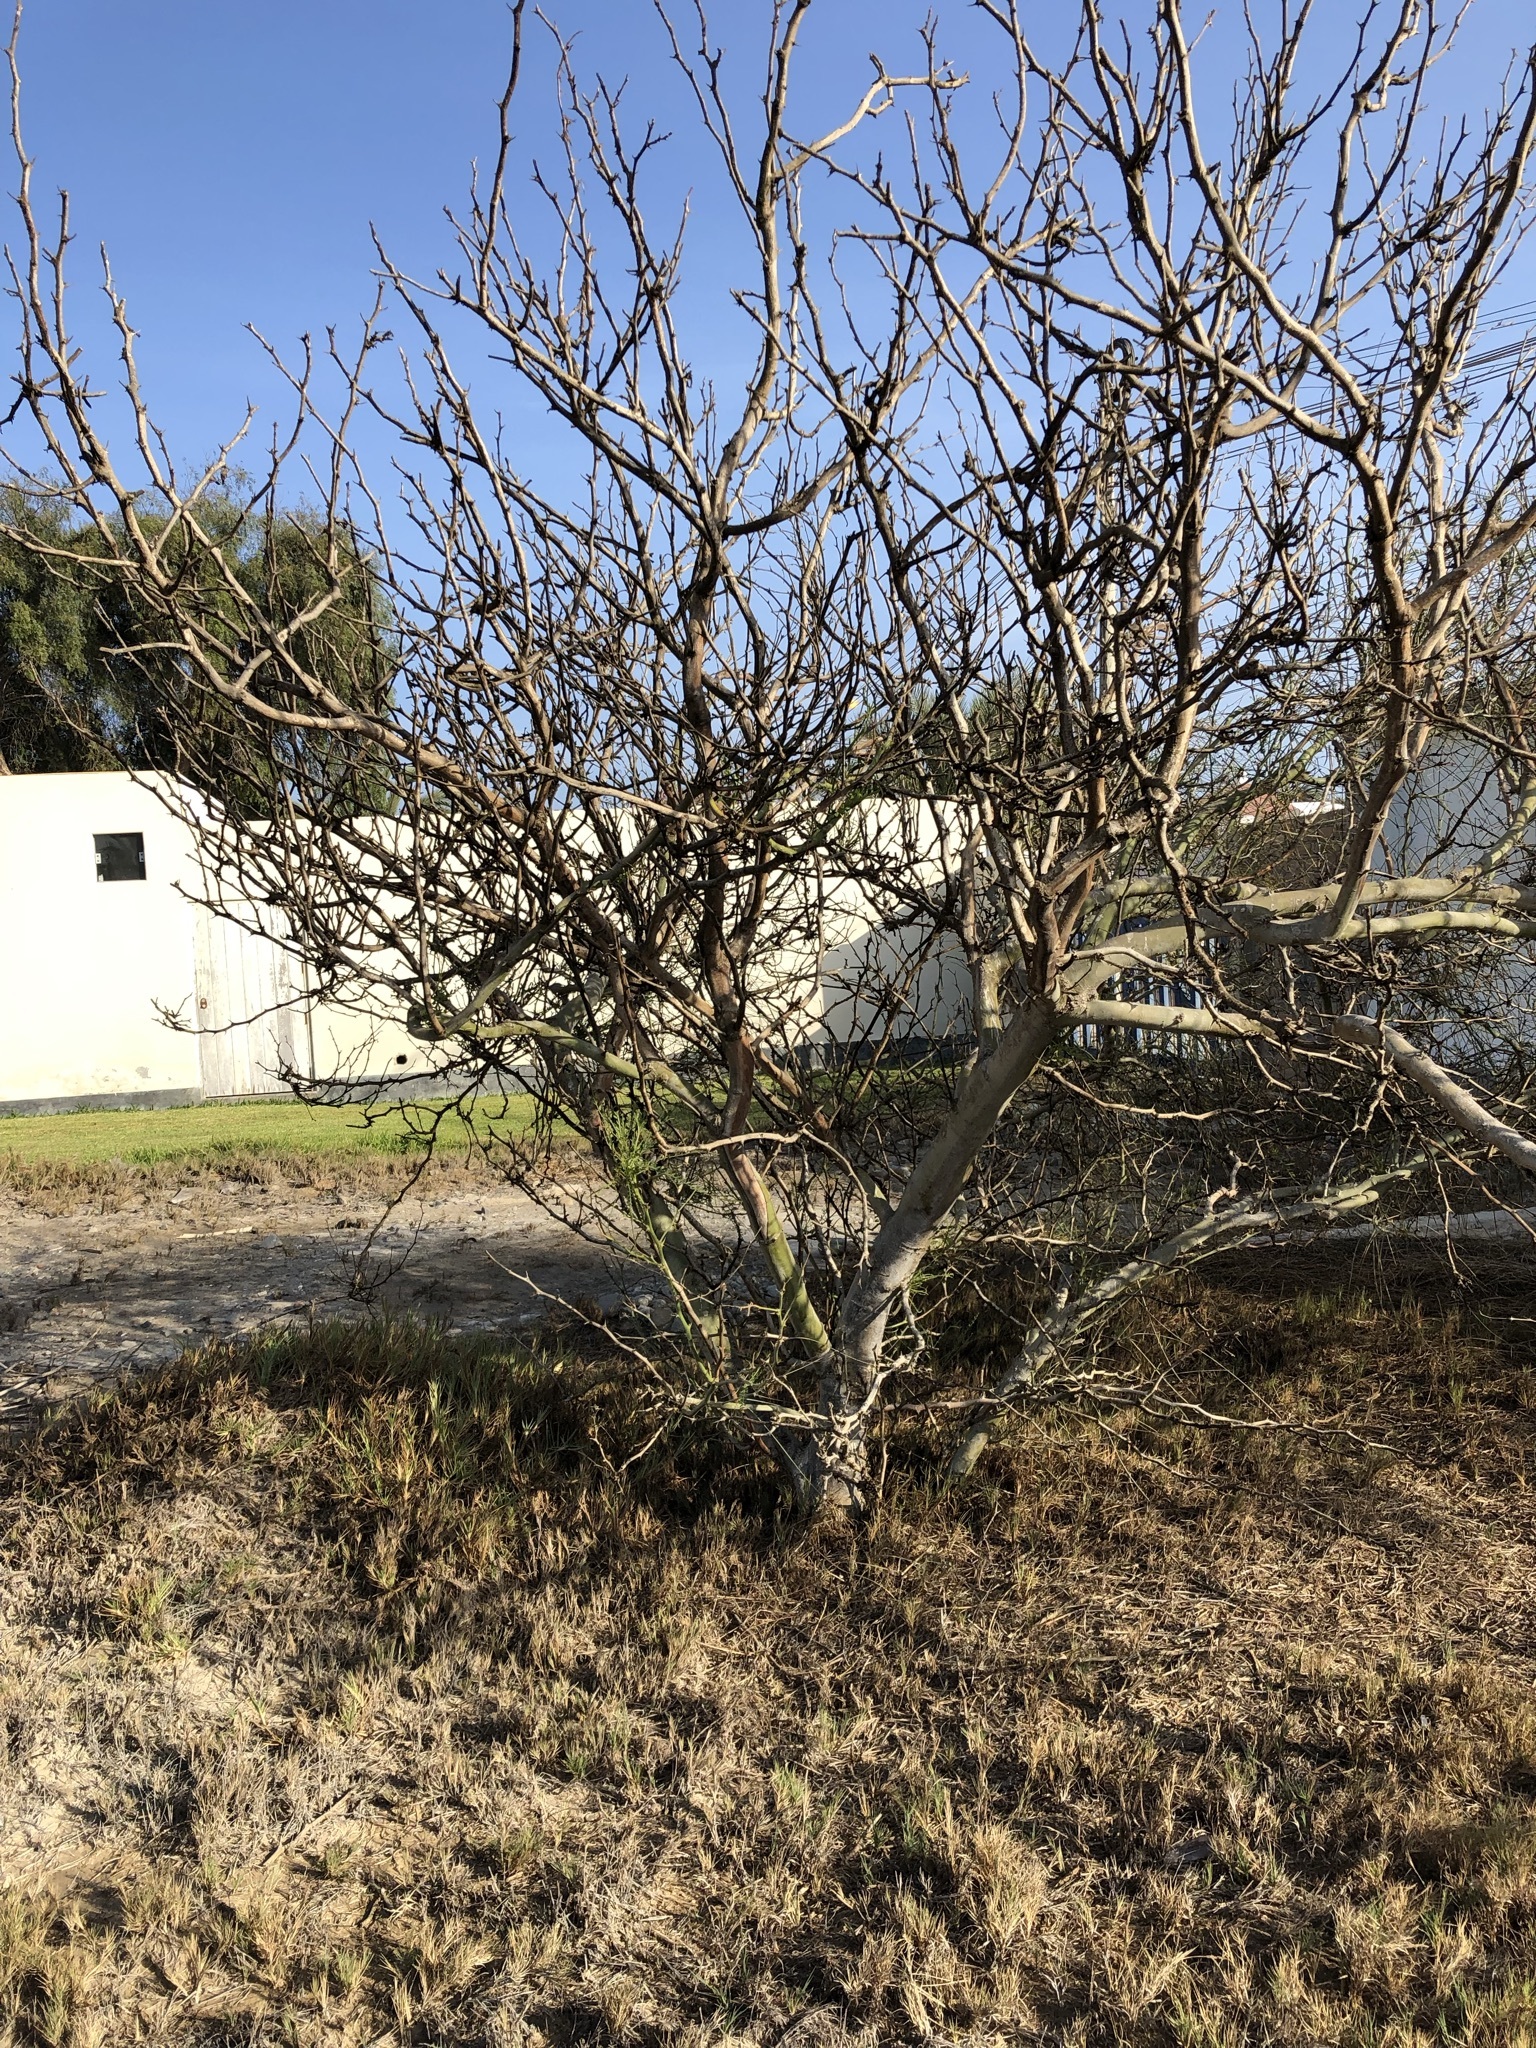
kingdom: Plantae
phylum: Tracheophyta
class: Magnoliopsida
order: Fabales
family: Fabaceae
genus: Parkinsonia
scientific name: Parkinsonia aculeata
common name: Jerusalem thorn
